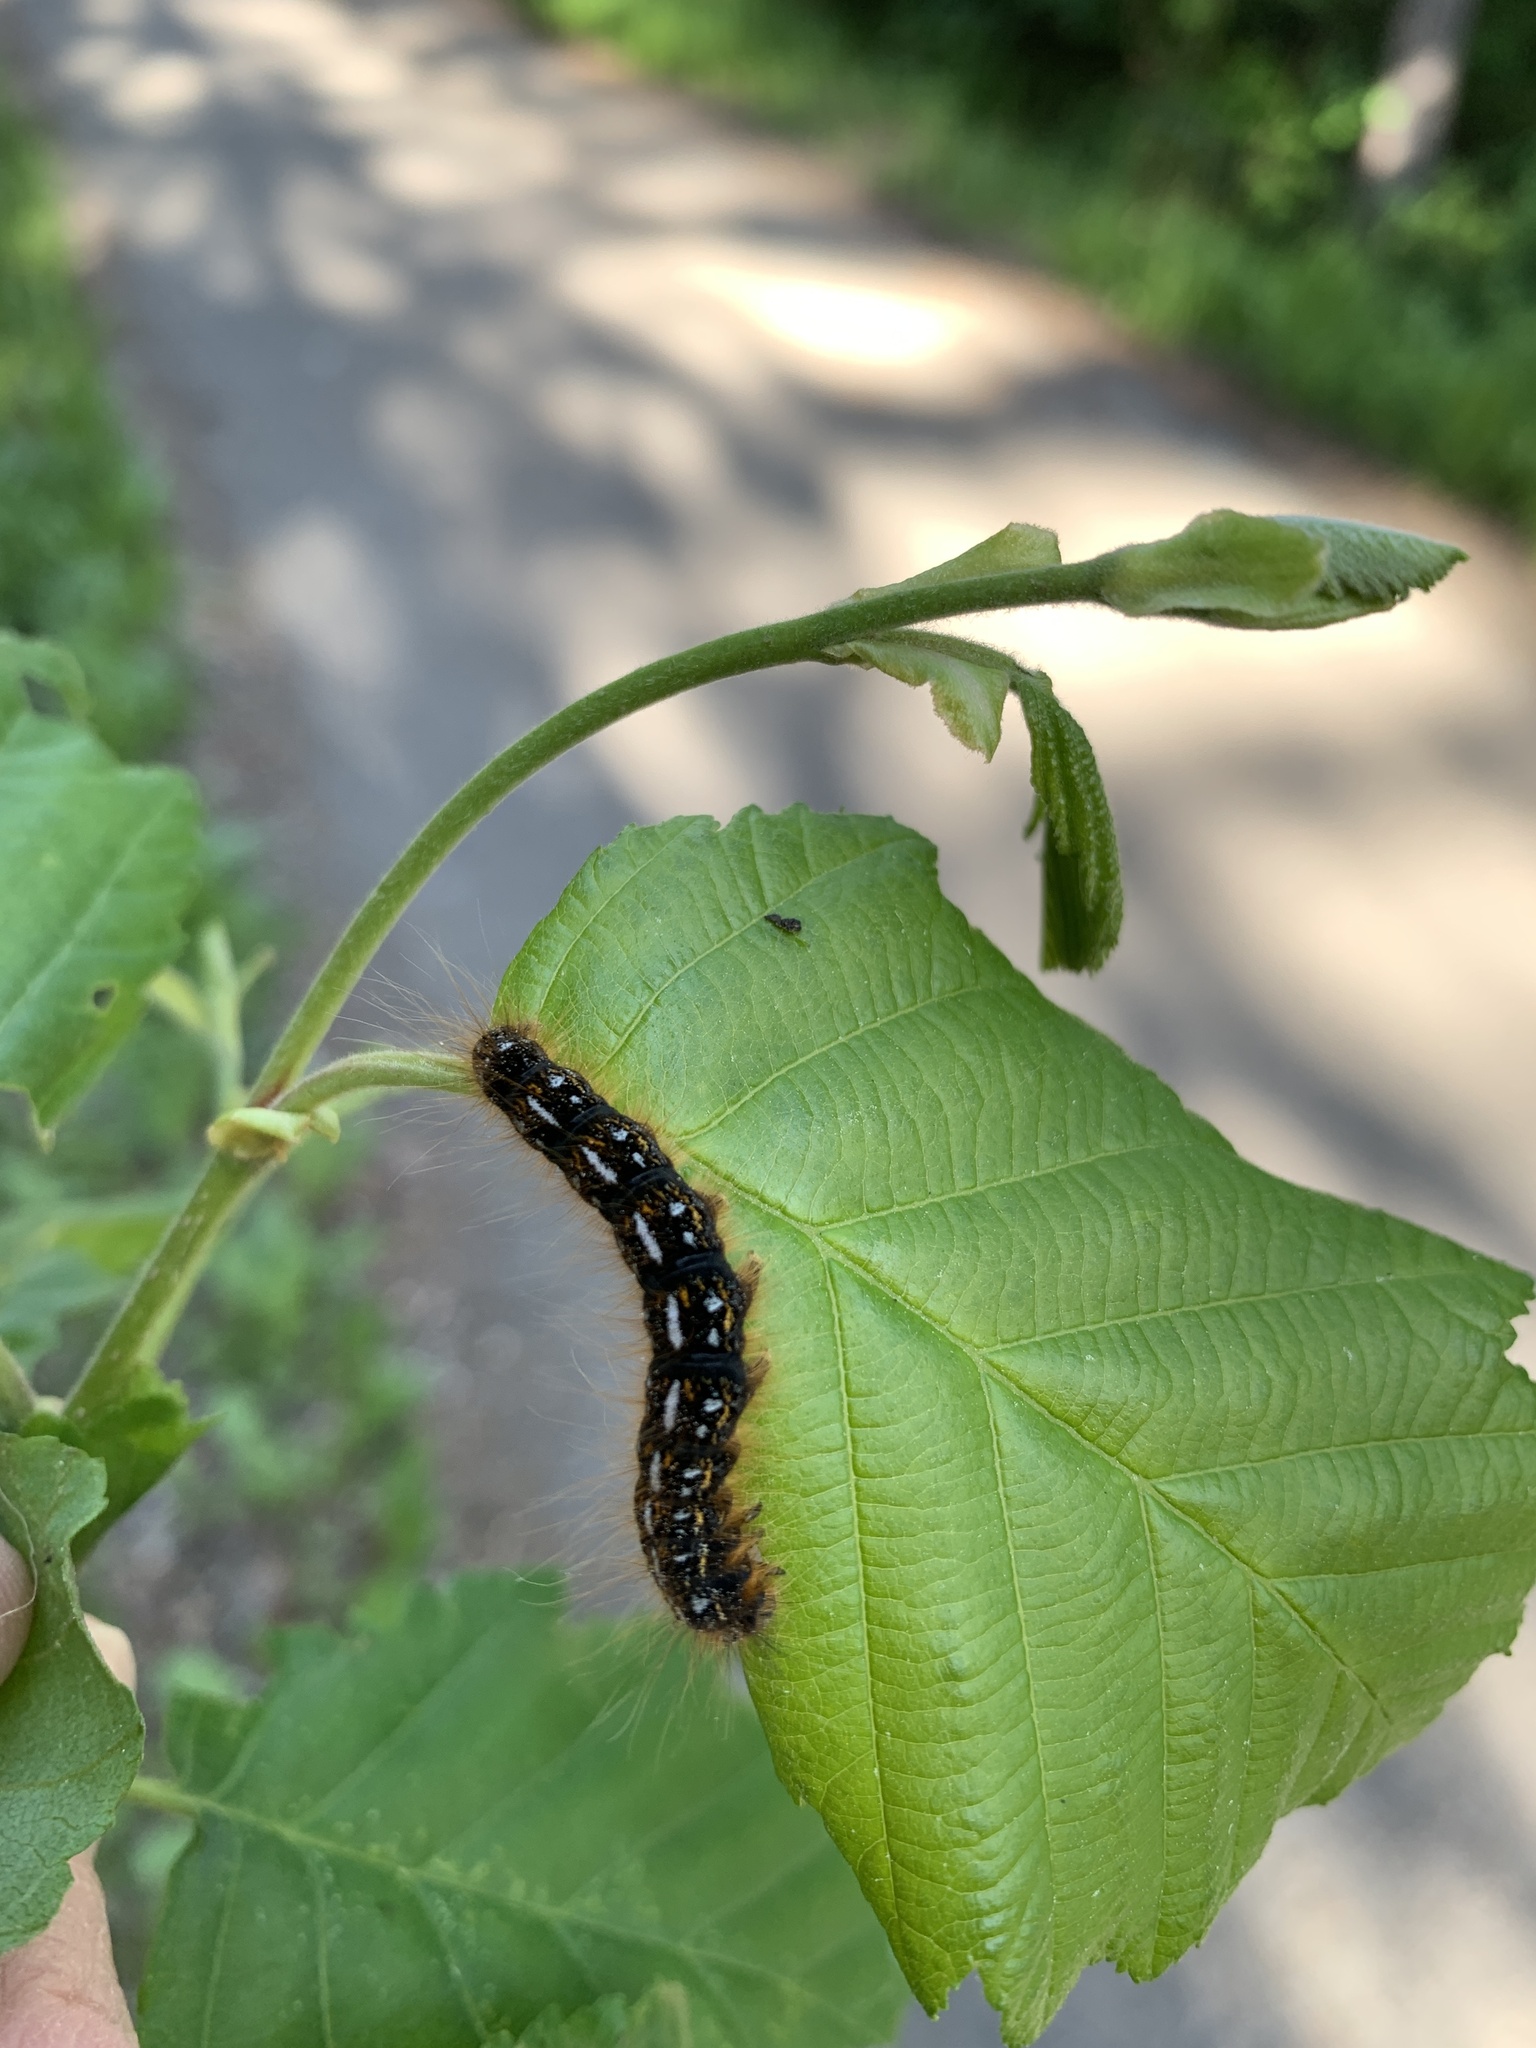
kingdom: Animalia
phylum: Arthropoda
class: Insecta
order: Lepidoptera
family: Lasiocampidae
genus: Malacosoma
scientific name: Malacosoma californica
